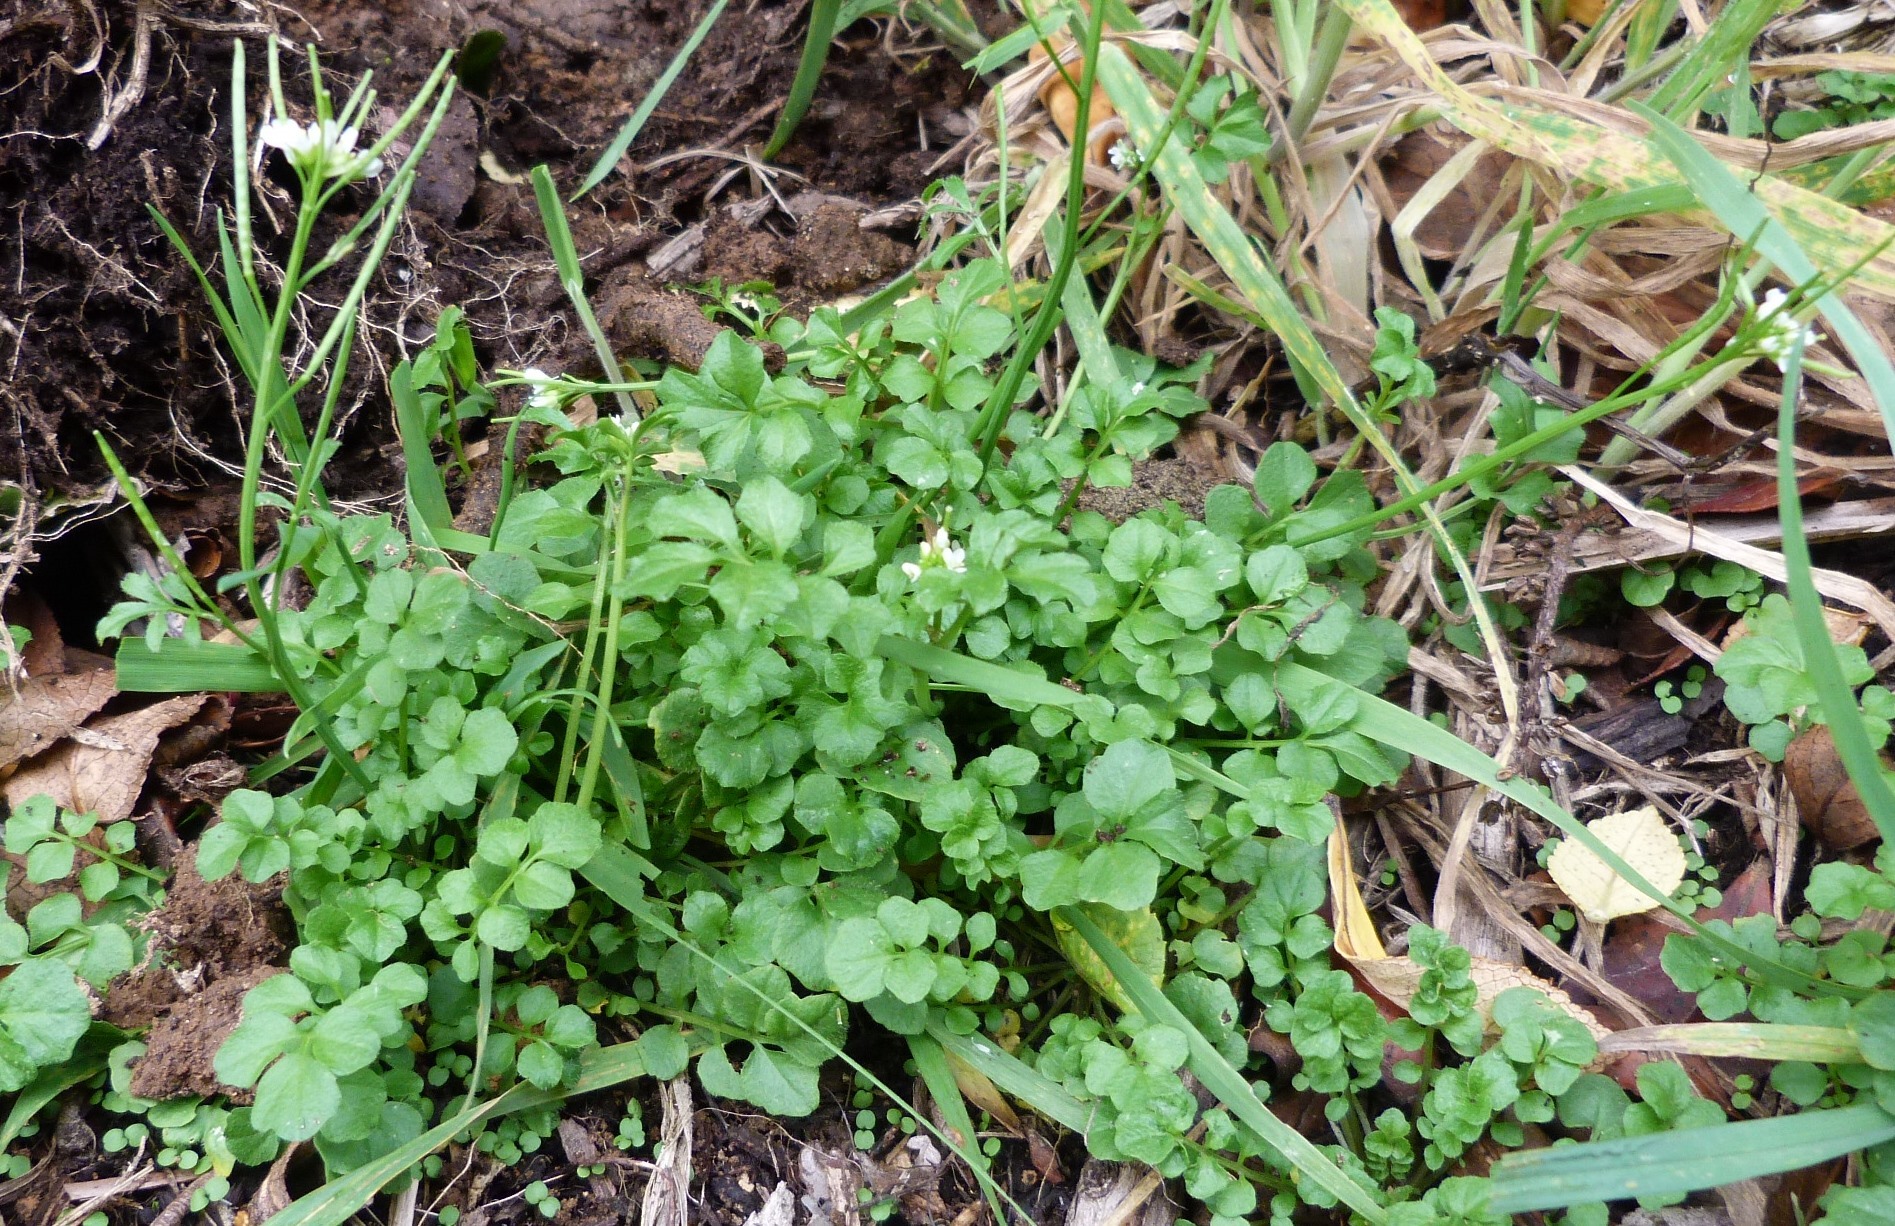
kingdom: Plantae
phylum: Tracheophyta
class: Magnoliopsida
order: Brassicales
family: Brassicaceae
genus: Cardamine
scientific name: Cardamine hirsuta
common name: Hairy bittercress
